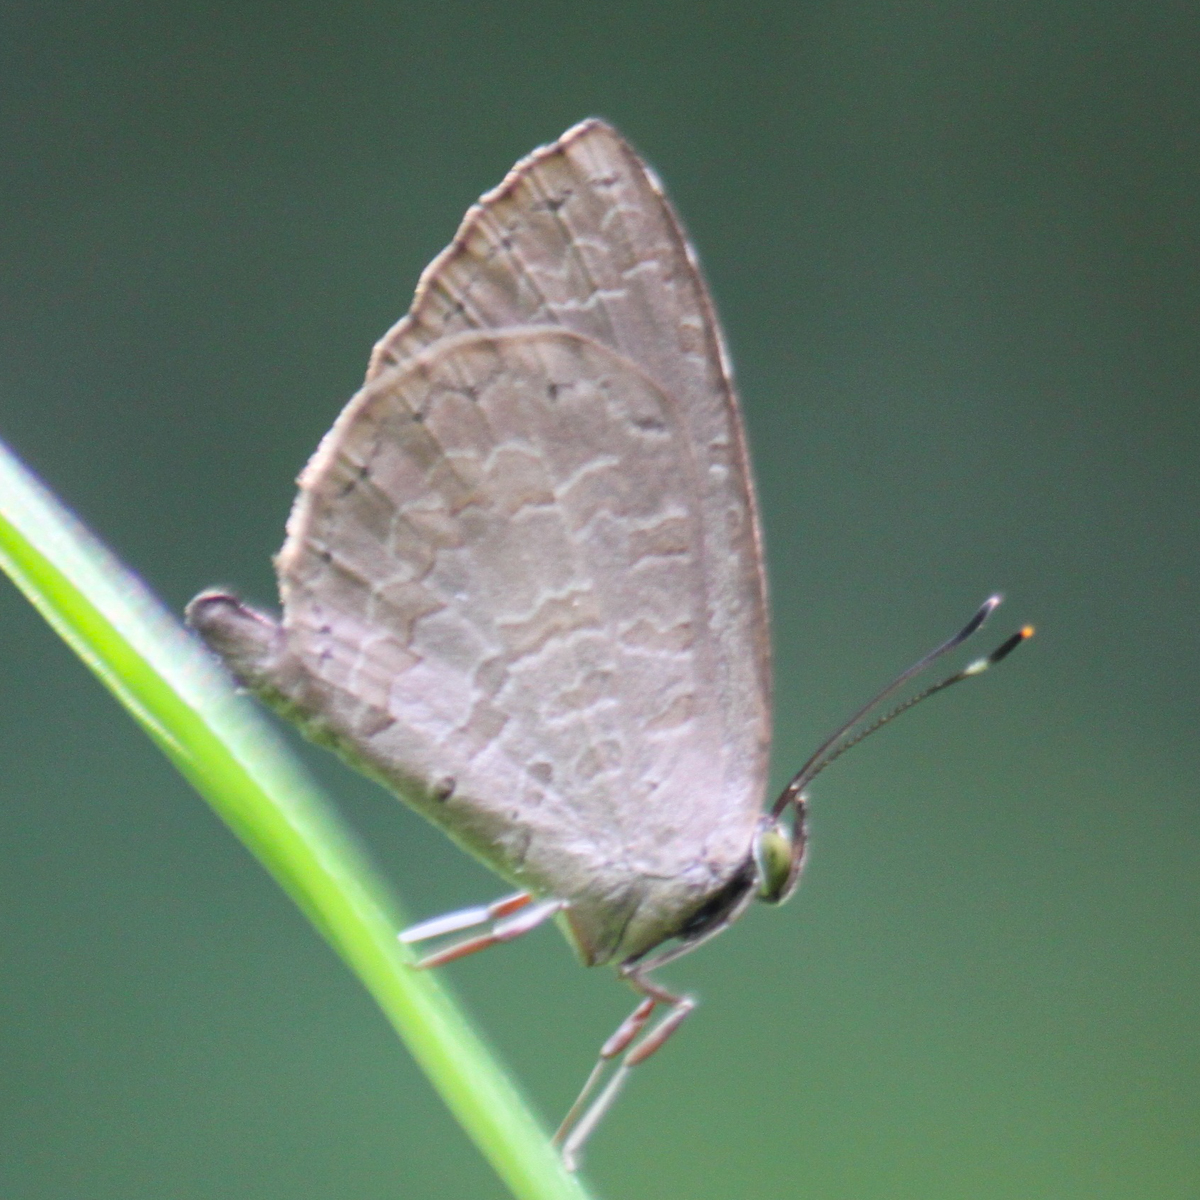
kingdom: Animalia
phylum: Arthropoda
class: Insecta
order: Lepidoptera
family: Lycaenidae
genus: Miletus
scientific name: Miletus chinensis
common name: Common brownie
